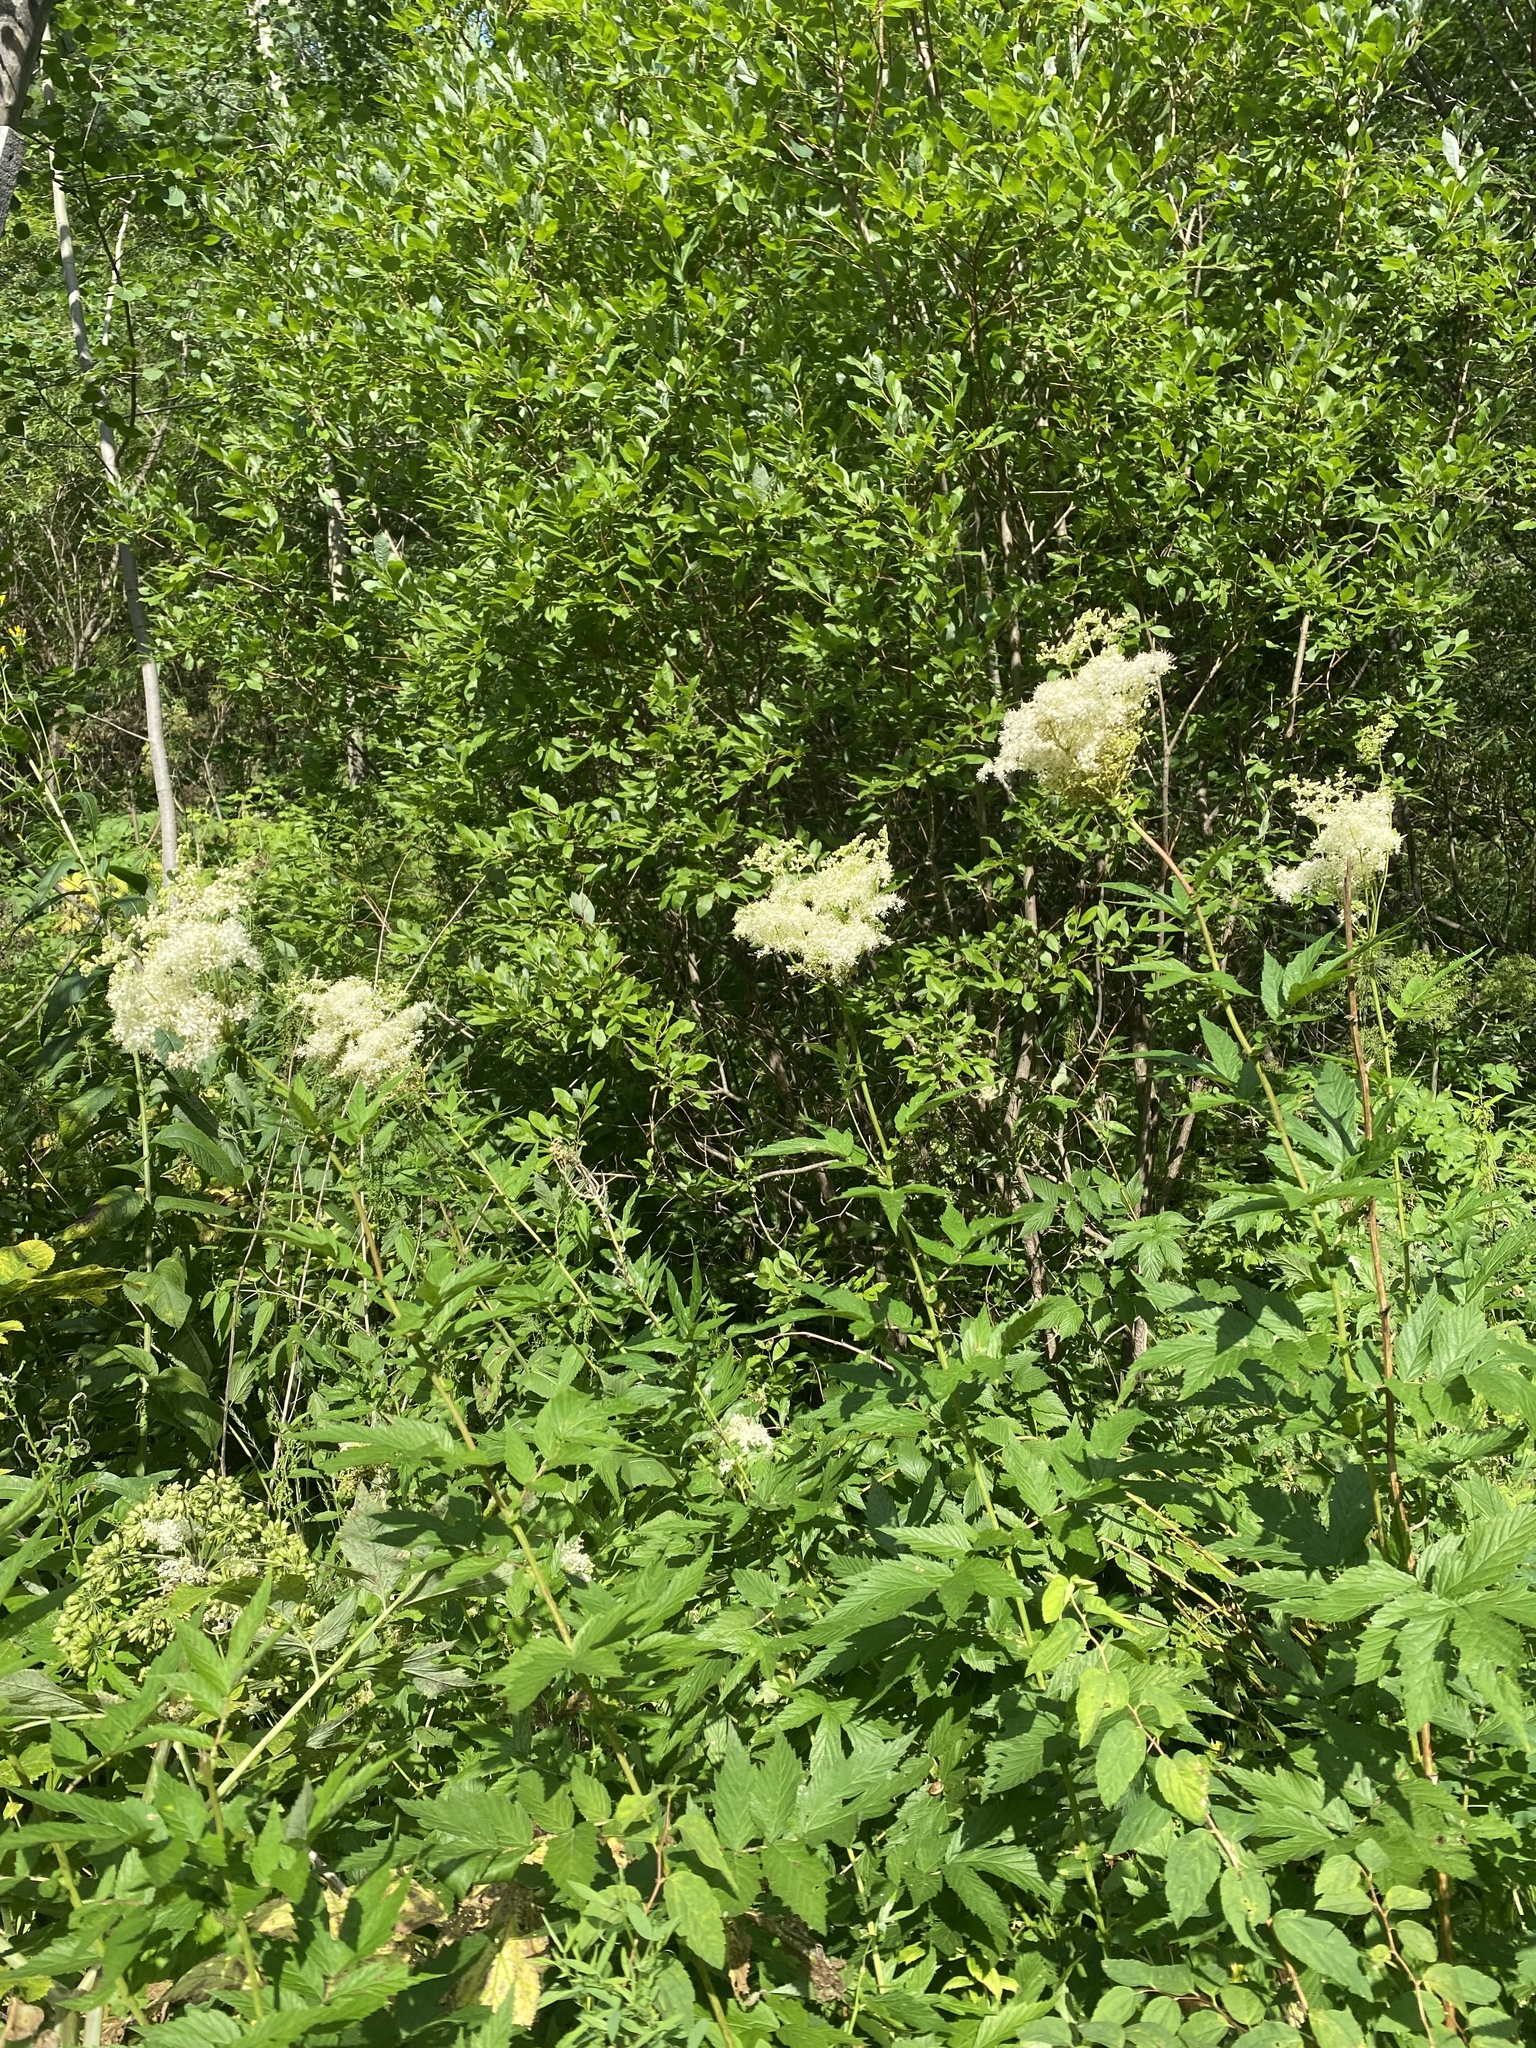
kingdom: Plantae
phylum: Tracheophyta
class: Magnoliopsida
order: Rosales
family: Rosaceae
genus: Filipendula
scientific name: Filipendula ulmaria
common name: Meadowsweet
